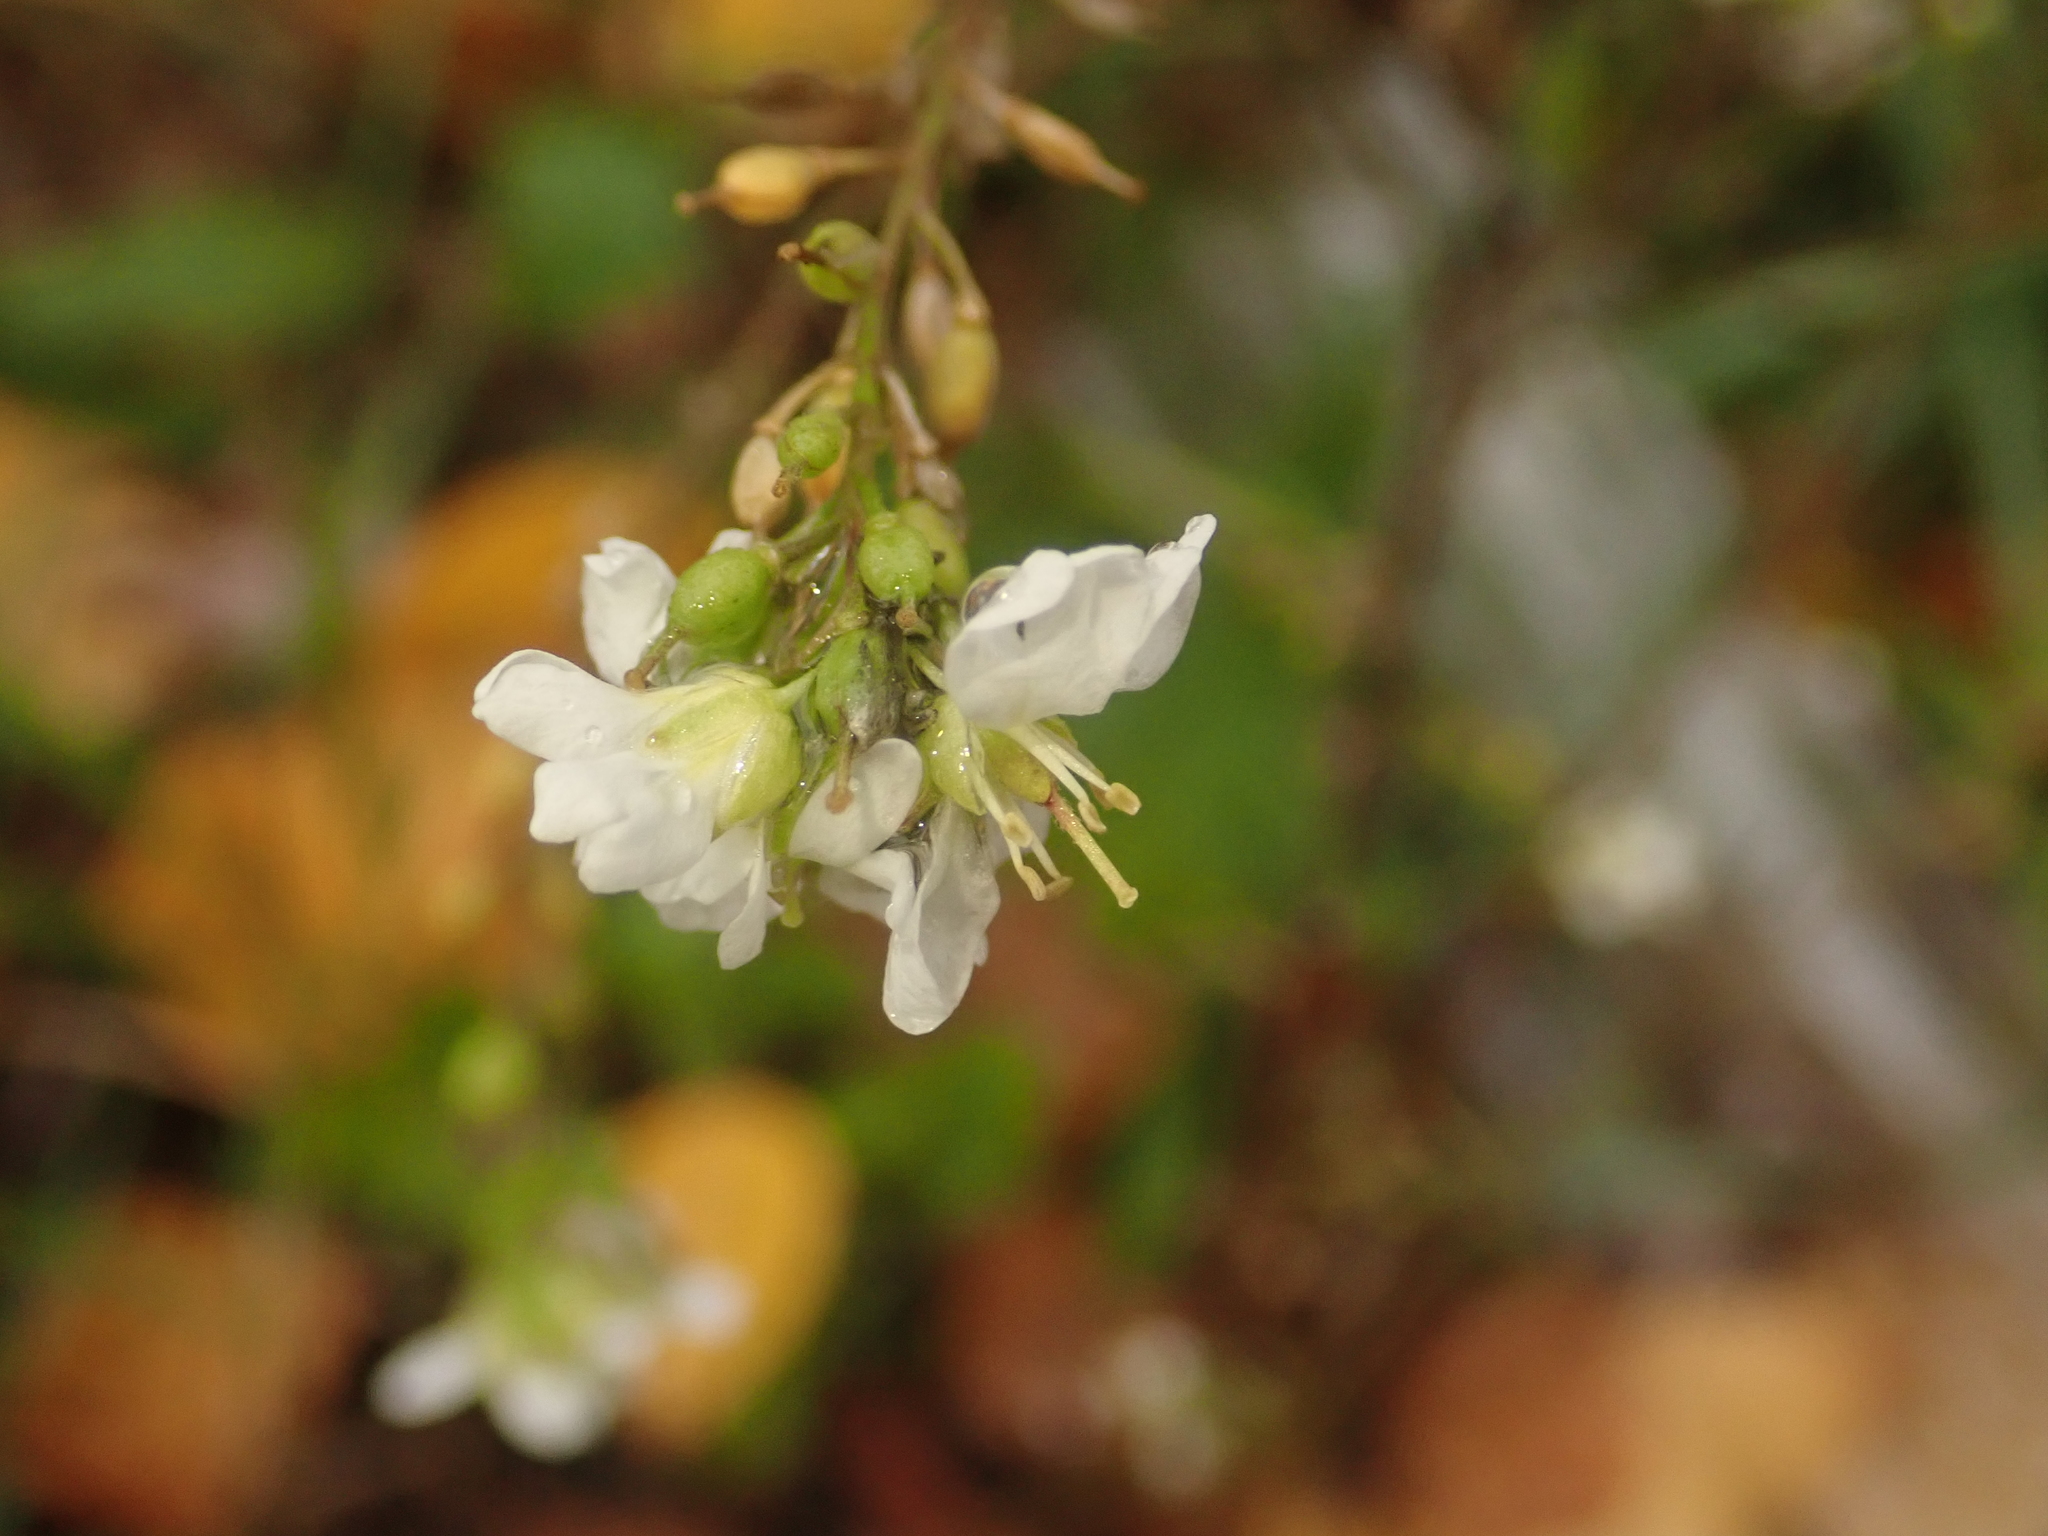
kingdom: Plantae
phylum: Tracheophyta
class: Magnoliopsida
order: Brassicales
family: Brassicaceae
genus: Berteroa
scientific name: Berteroa incana
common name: Hoary alison
